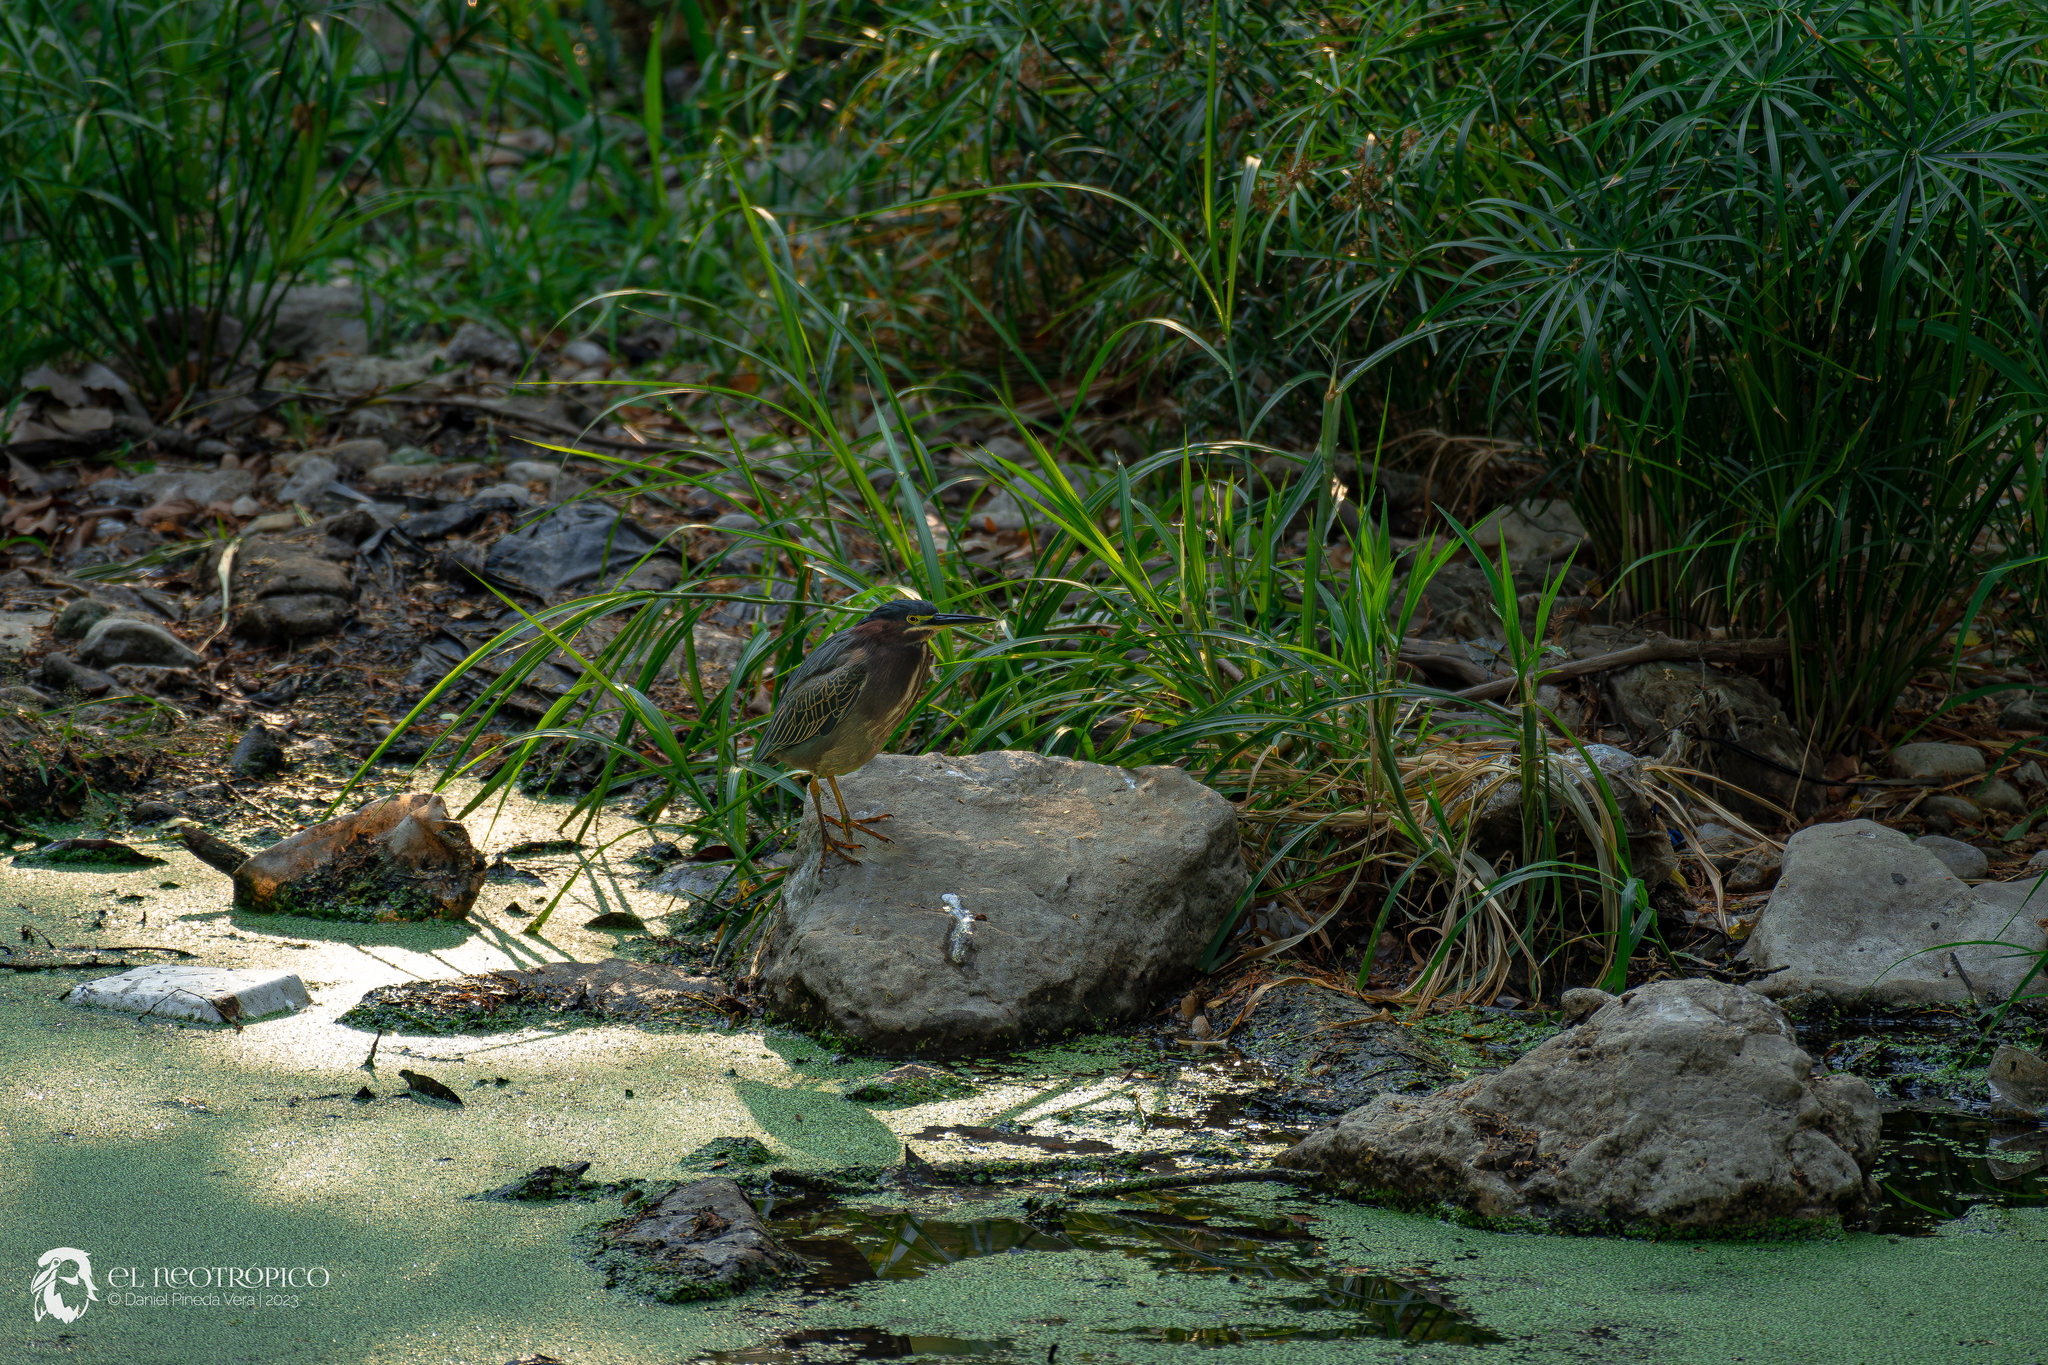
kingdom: Animalia
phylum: Chordata
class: Aves
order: Pelecaniformes
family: Ardeidae
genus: Butorides
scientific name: Butorides virescens
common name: Green heron
